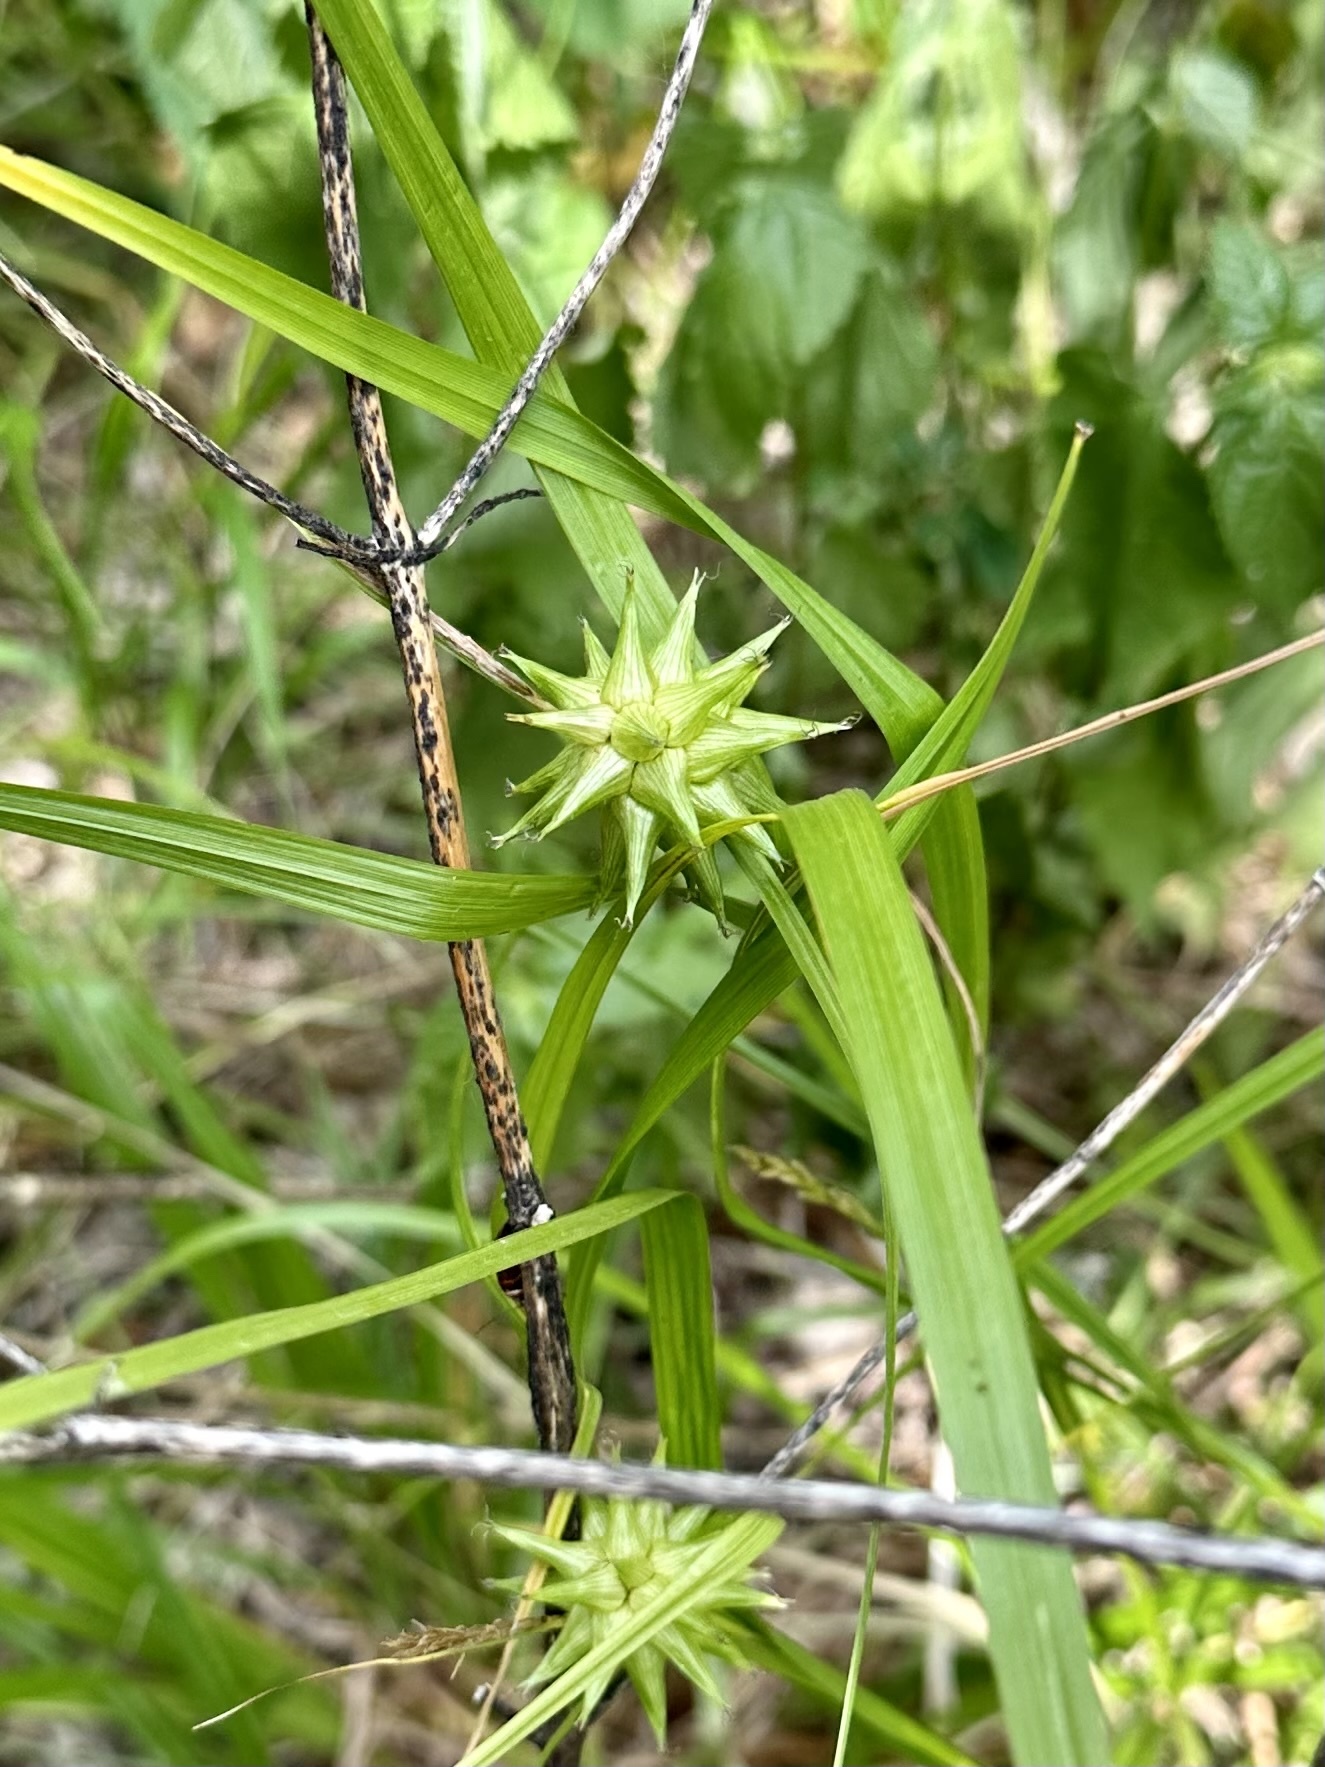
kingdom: Plantae
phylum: Tracheophyta
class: Liliopsida
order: Poales
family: Cyperaceae
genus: Carex
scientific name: Carex grayi
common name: Asa gray's sedge
